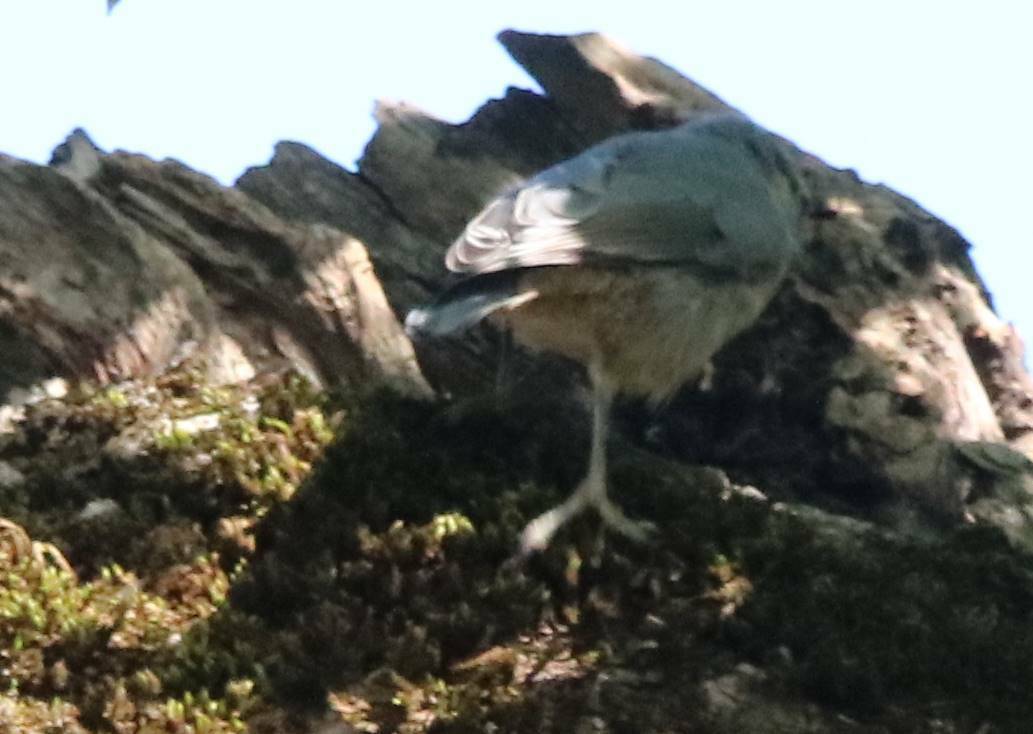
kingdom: Animalia
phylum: Chordata
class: Aves
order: Passeriformes
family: Sittidae
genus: Sitta
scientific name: Sitta ledanti
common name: Algerian nuthatch
